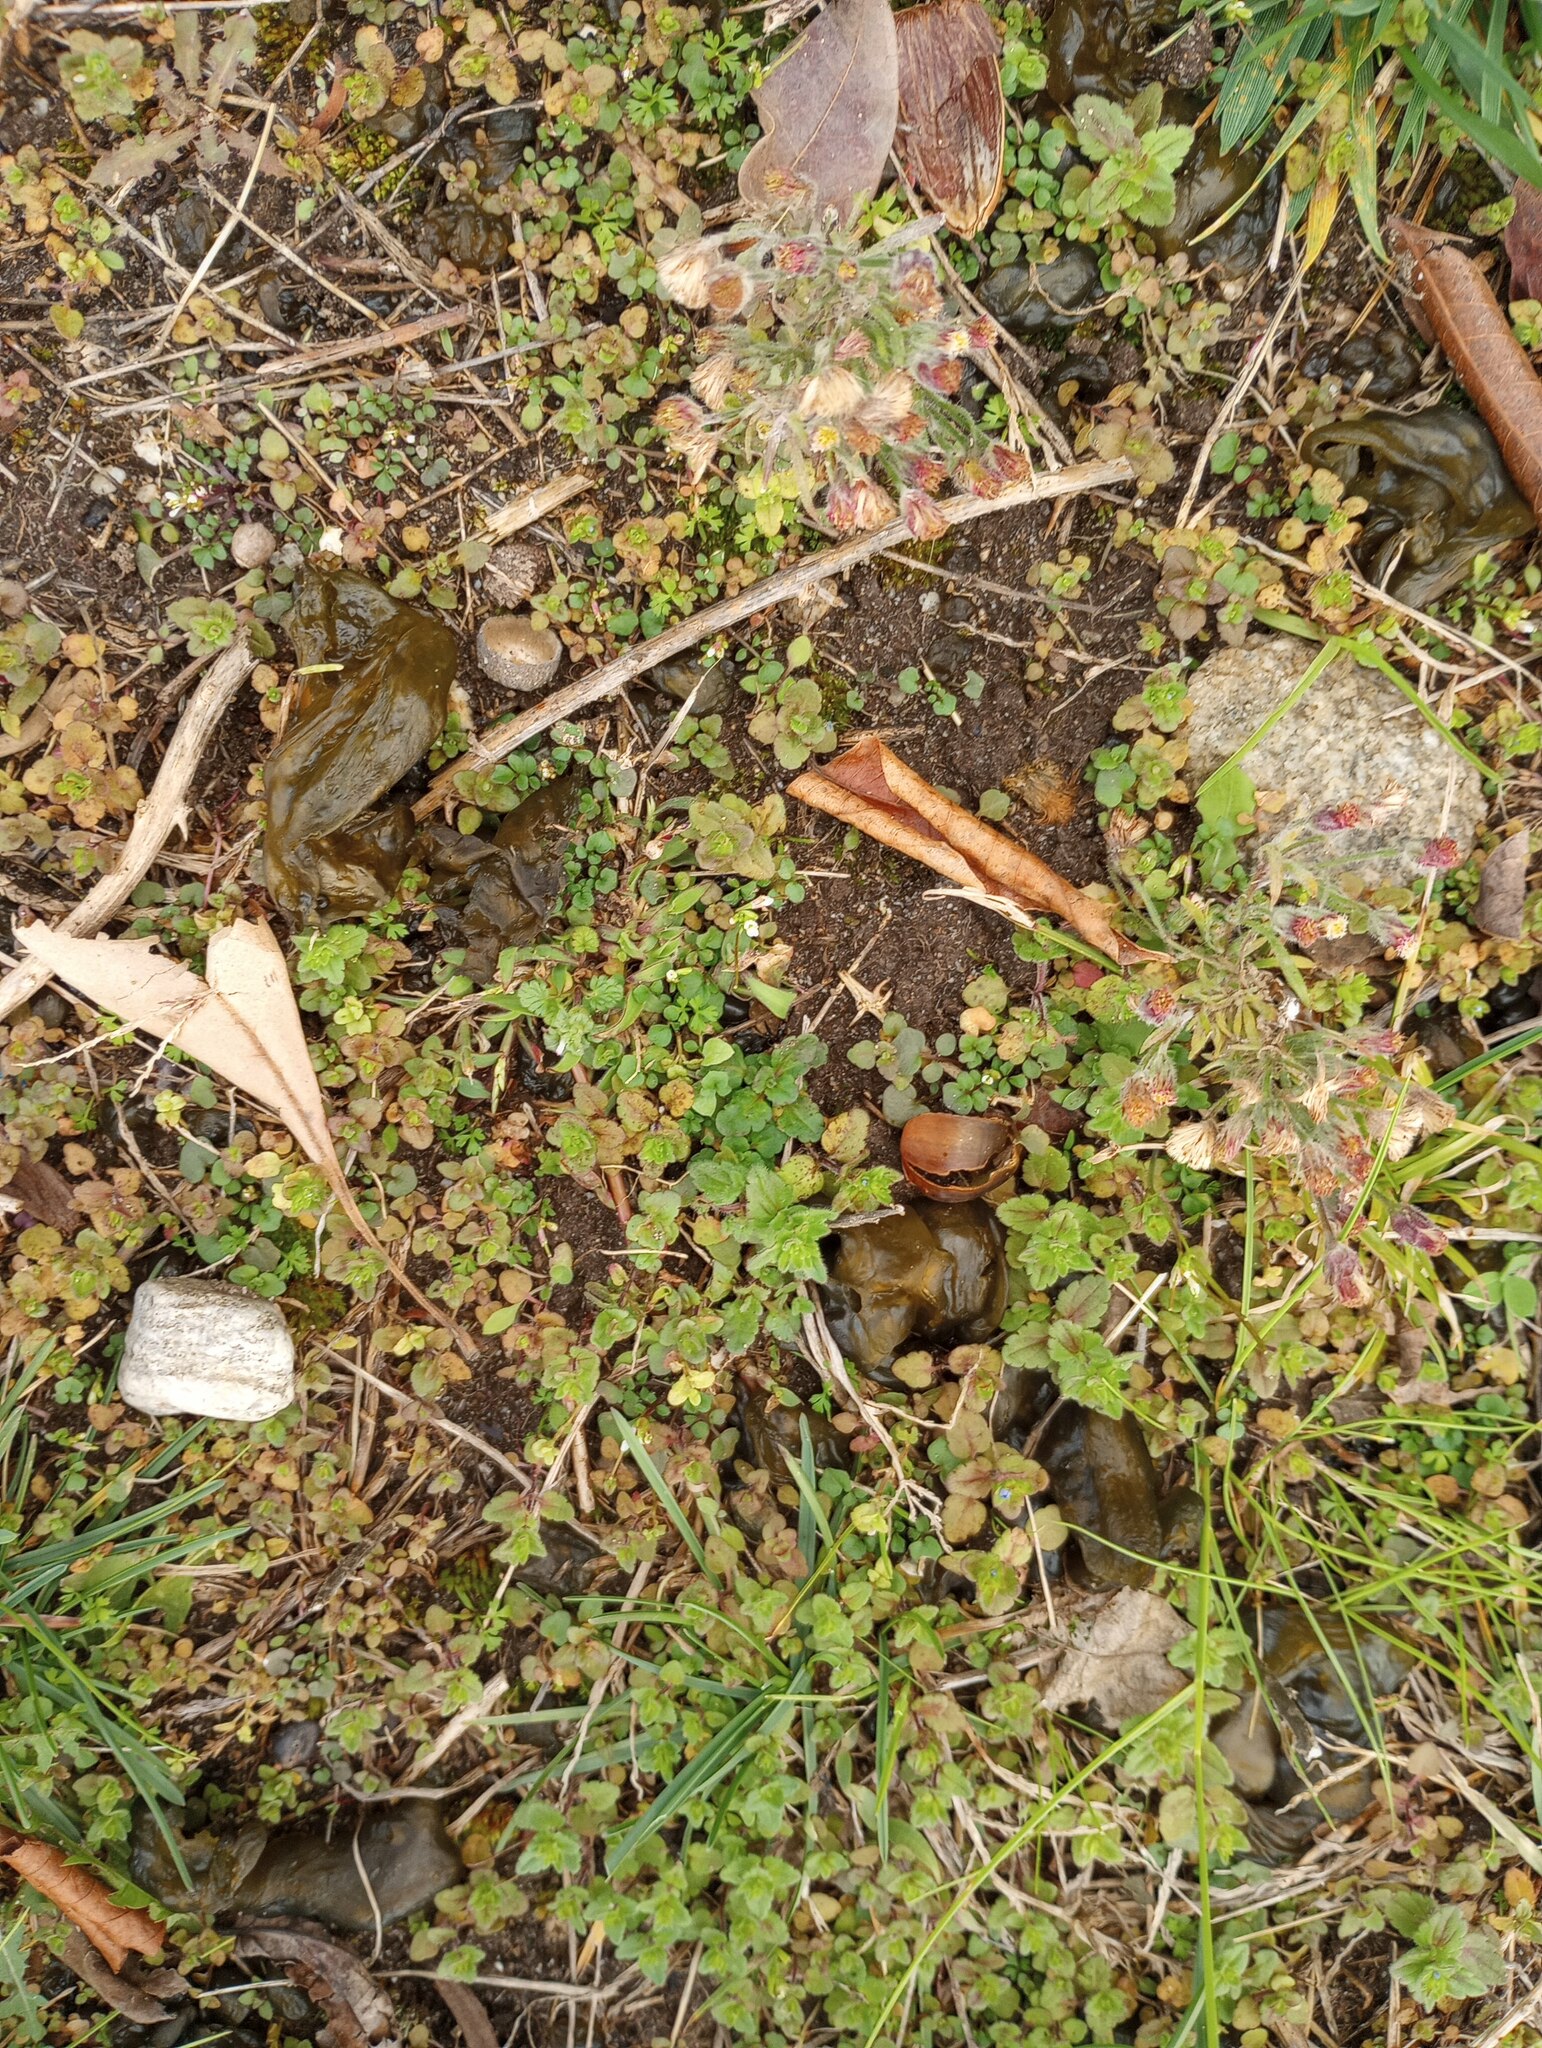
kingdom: Bacteria
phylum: Cyanobacteria
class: Cyanobacteriia
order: Cyanobacteriales
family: Nostocaceae
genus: Nostoc
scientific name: Nostoc commune
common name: Star jelly
